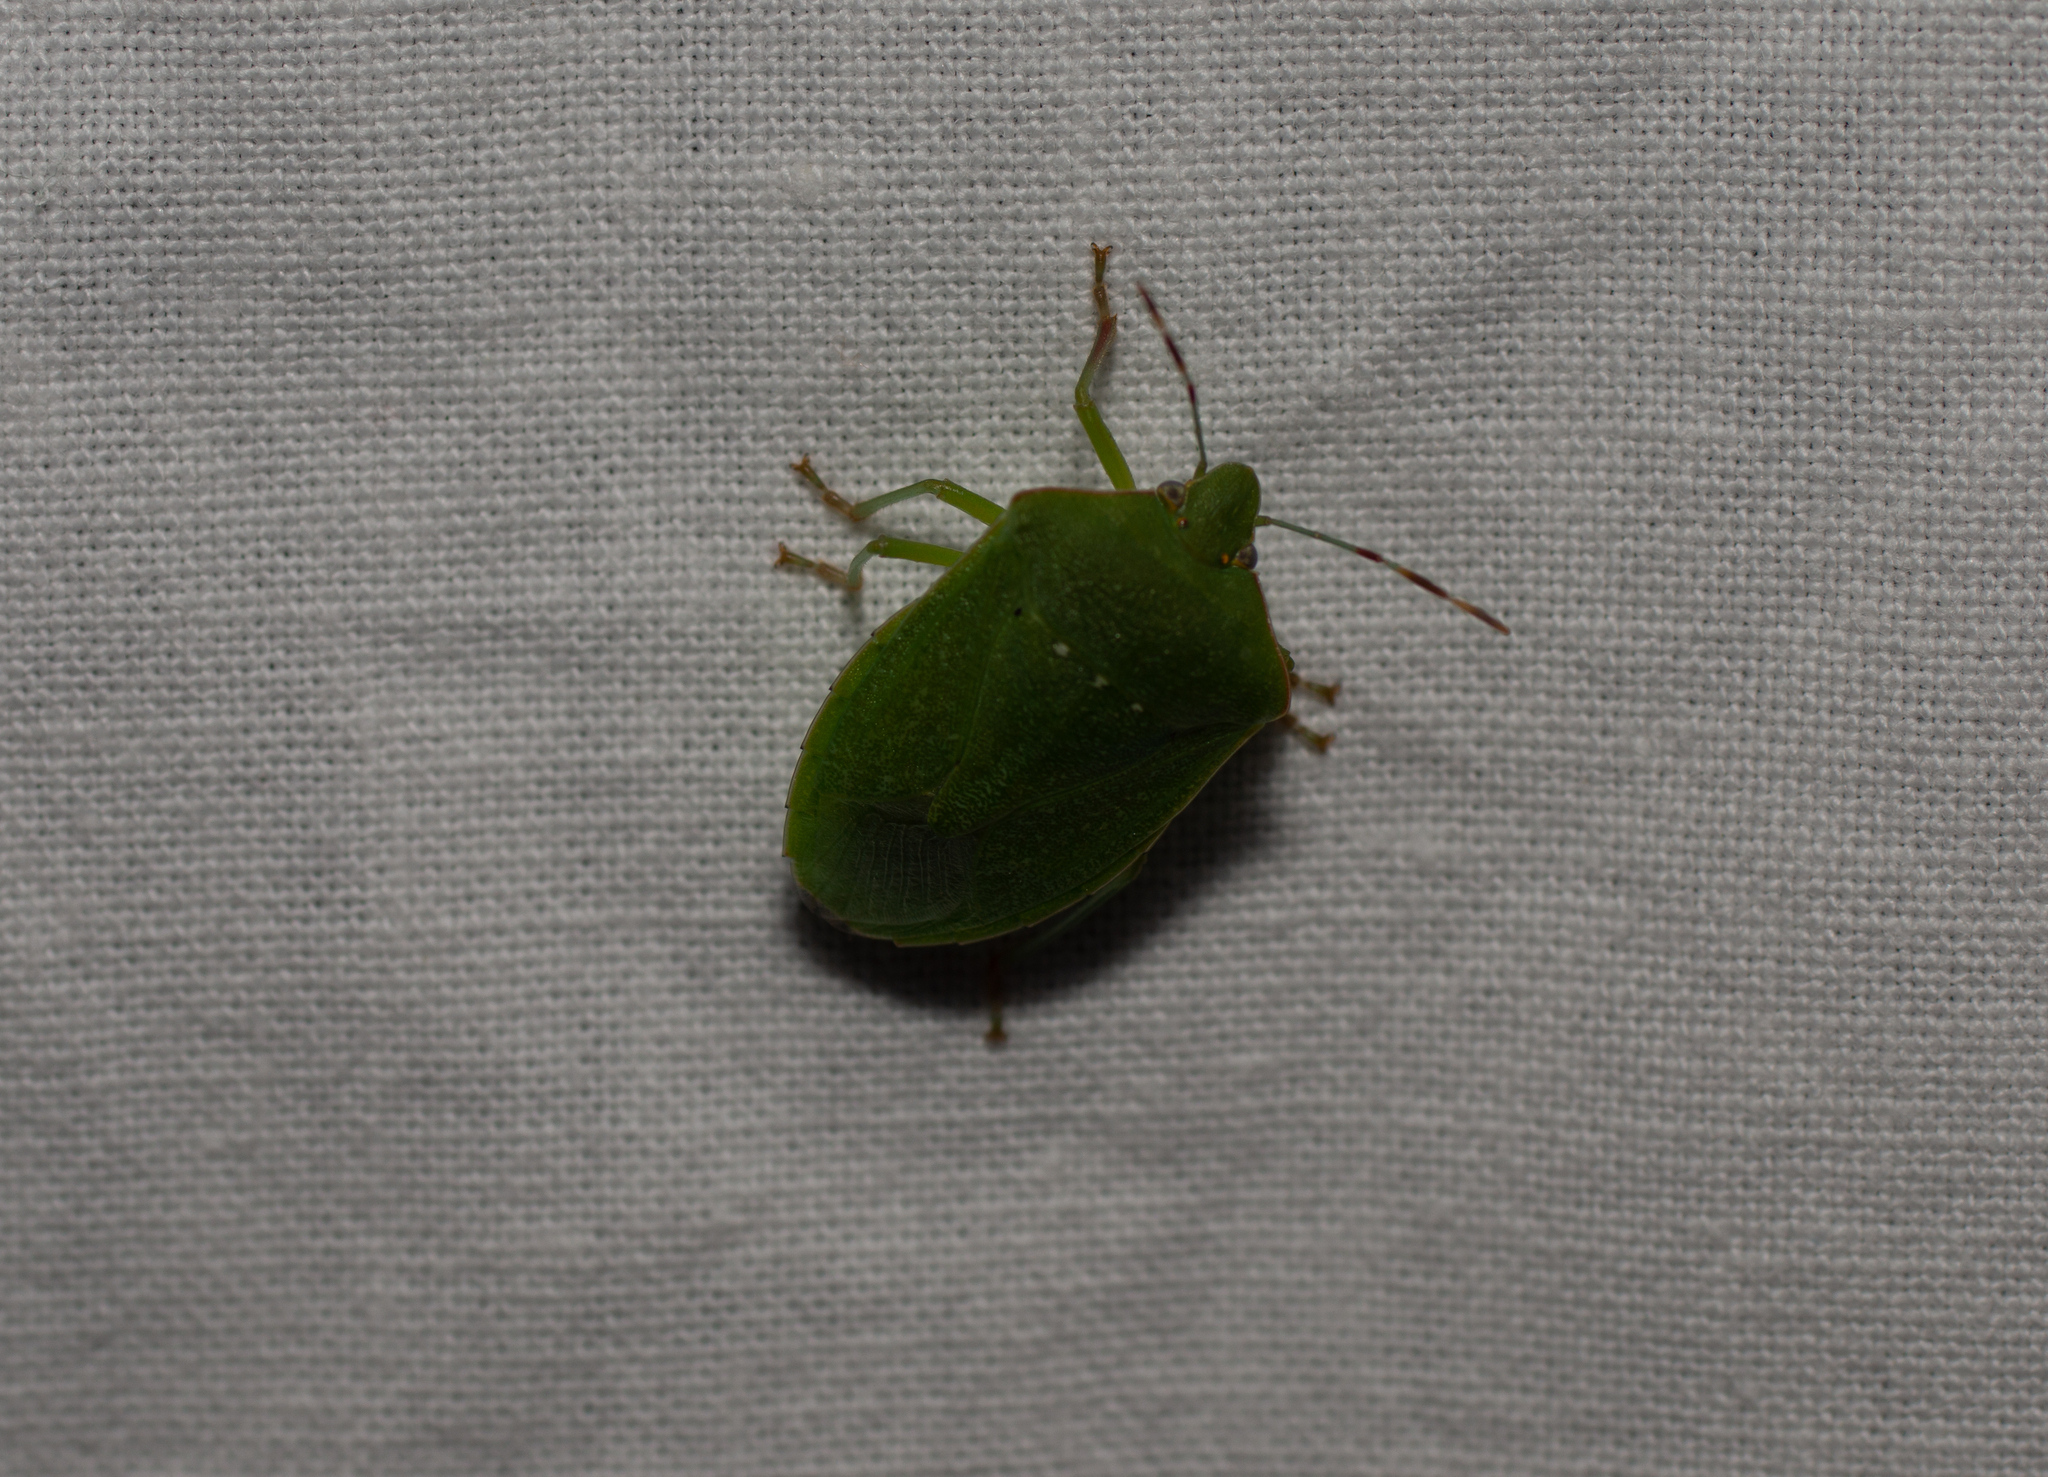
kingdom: Animalia
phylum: Arthropoda
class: Insecta
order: Hemiptera
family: Pentatomidae
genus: Nezara
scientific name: Nezara viridula
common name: Southern green stink bug
